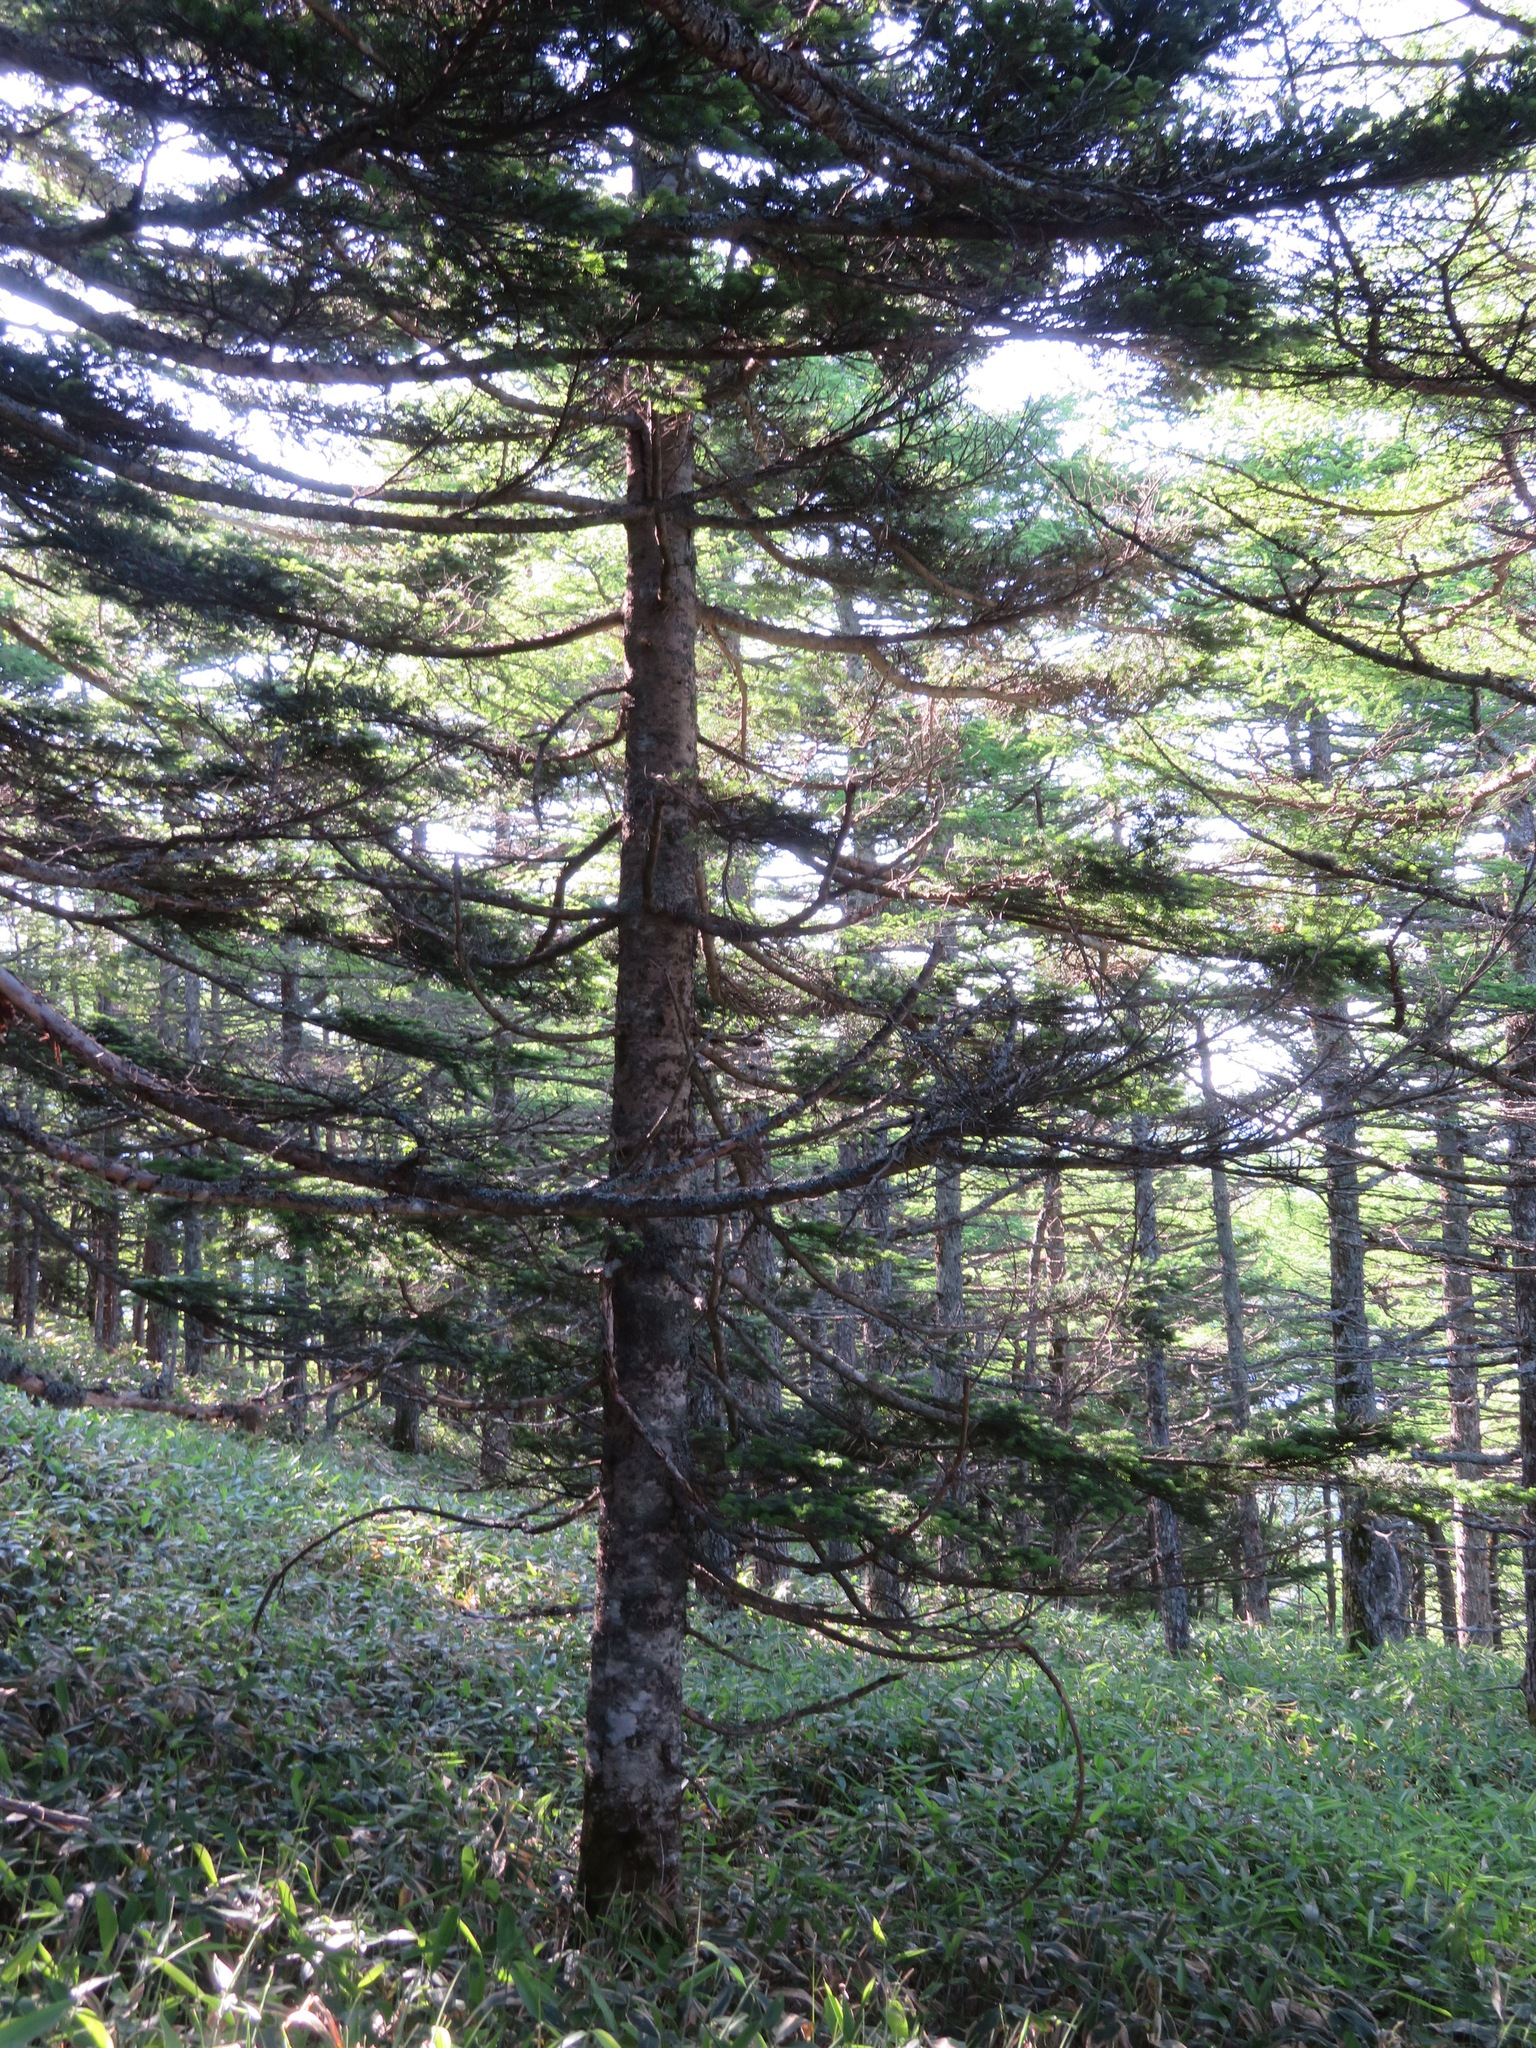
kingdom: Plantae
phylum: Tracheophyta
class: Pinopsida
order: Pinales
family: Pinaceae
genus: Abies
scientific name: Abies homolepis
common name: Nikko fir
